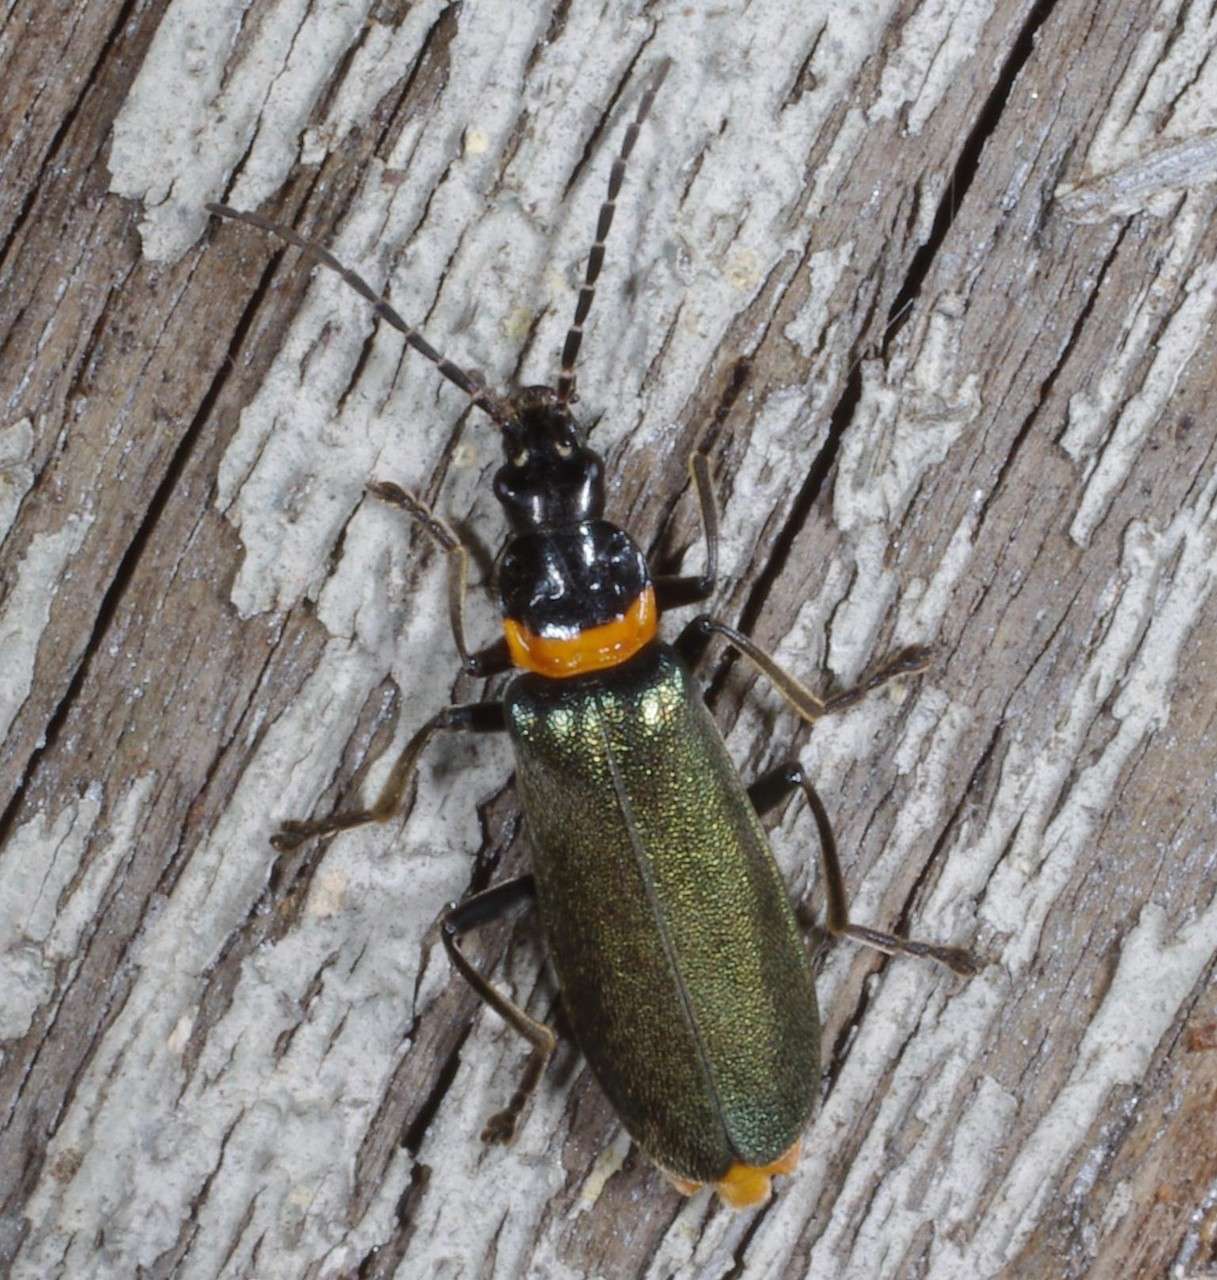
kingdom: Animalia
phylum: Arthropoda
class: Insecta
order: Coleoptera
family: Cantharidae
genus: Chauliognathus
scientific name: Chauliognathus
